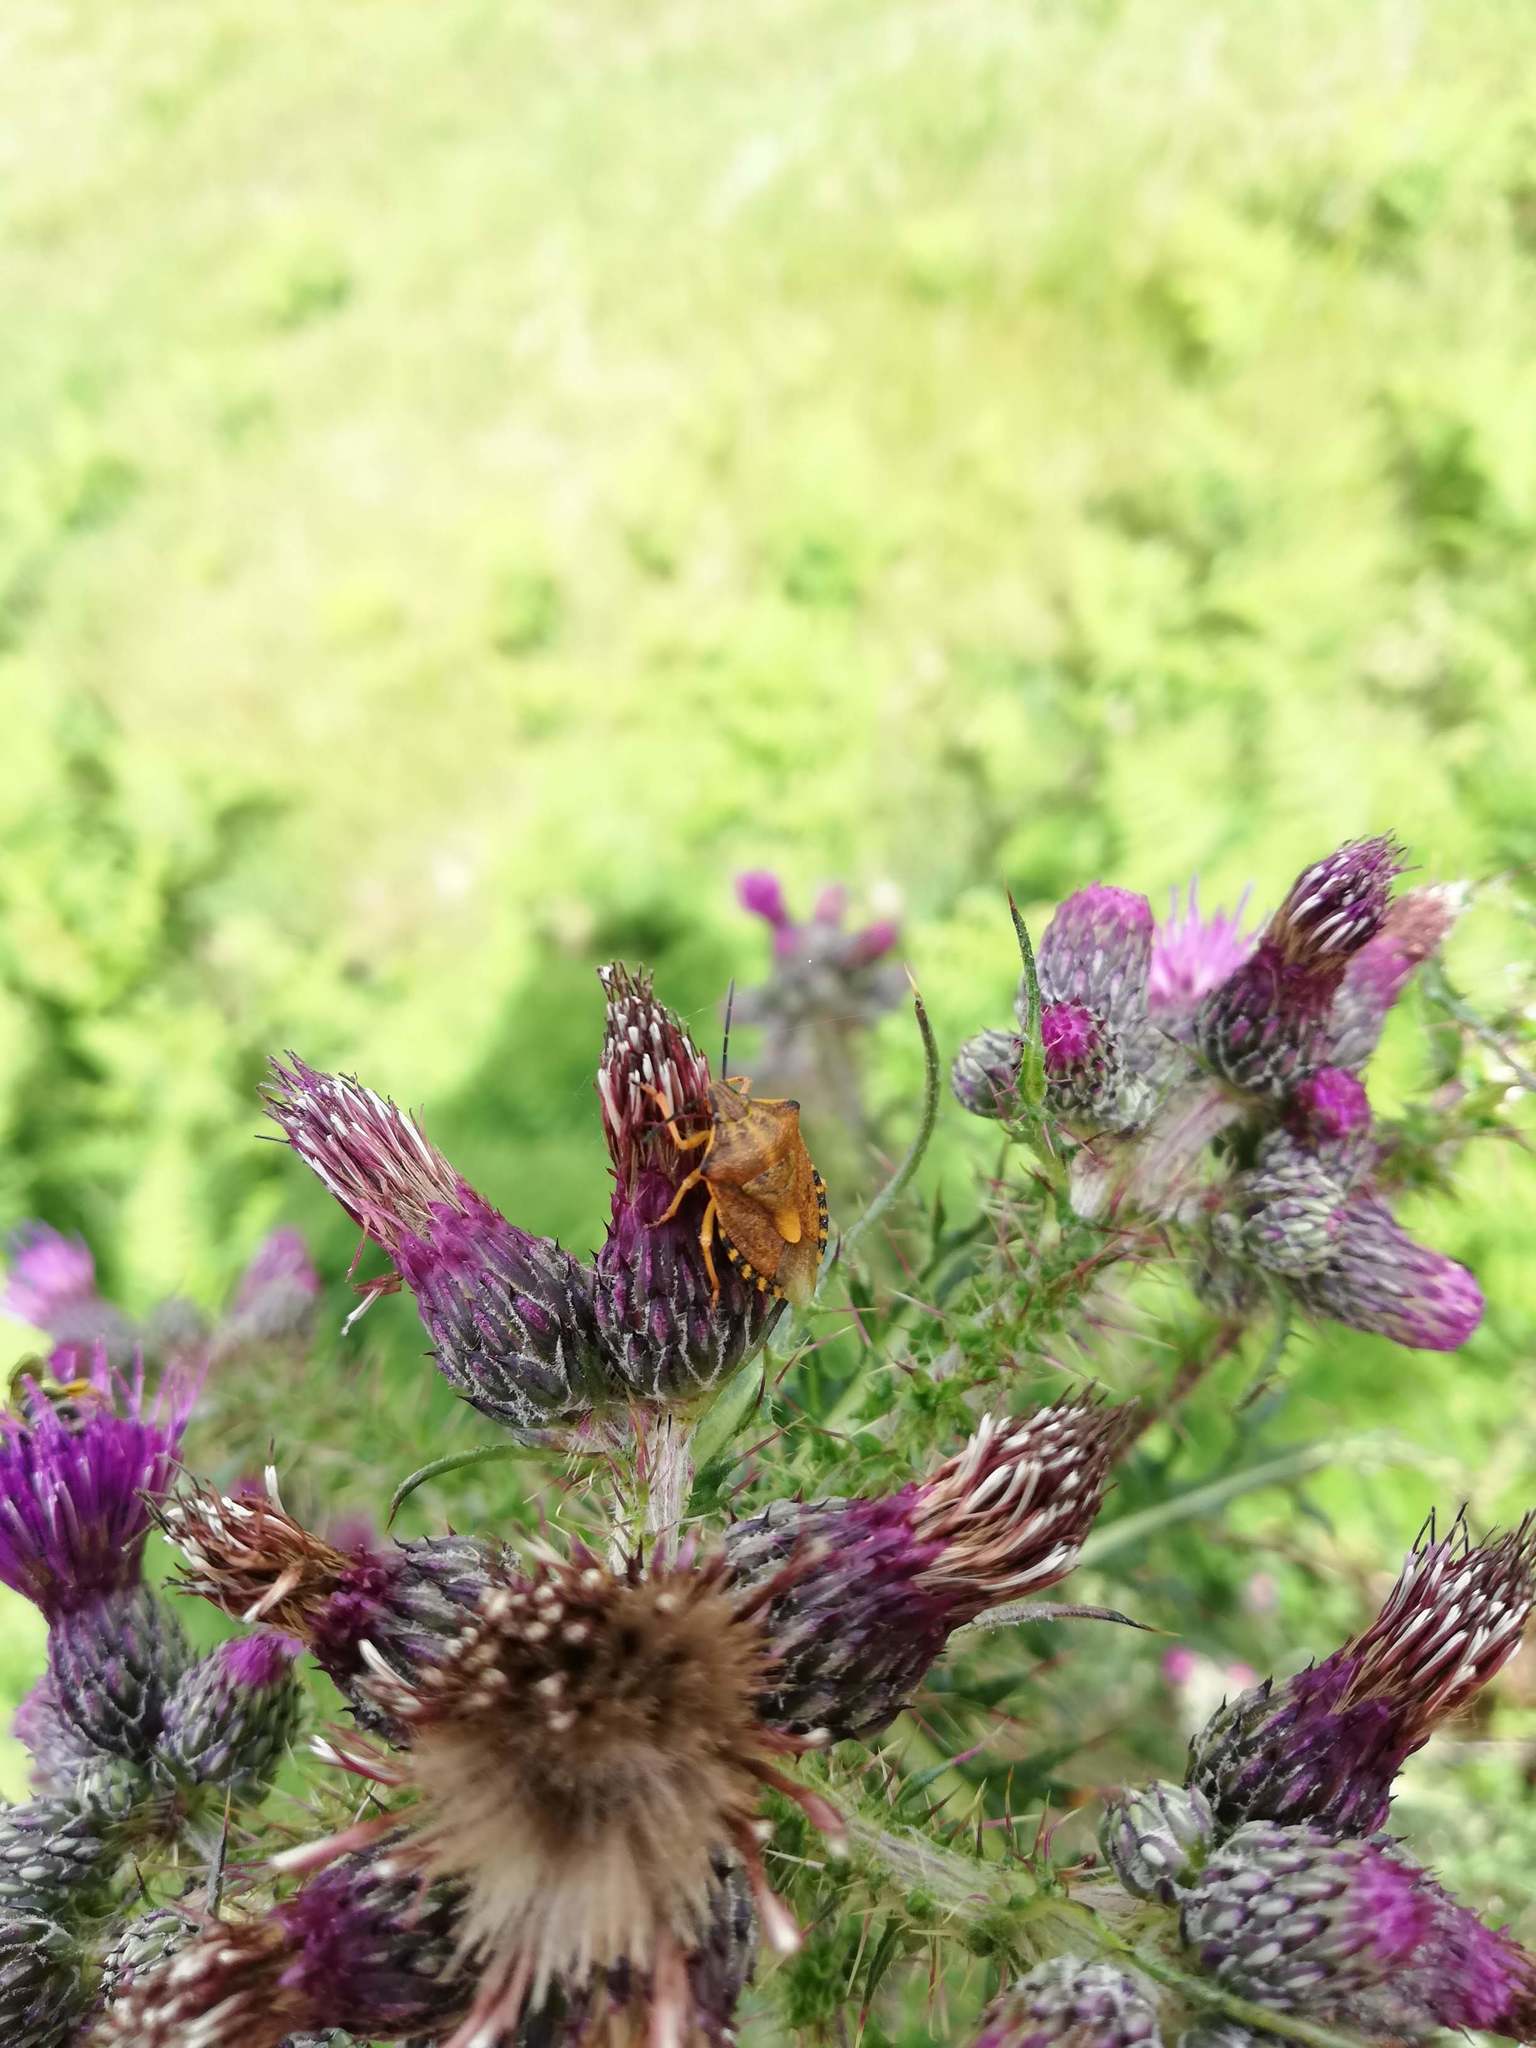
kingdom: Animalia
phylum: Arthropoda
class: Insecta
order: Hemiptera
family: Pentatomidae
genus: Carpocoris
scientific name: Carpocoris purpureipennis
